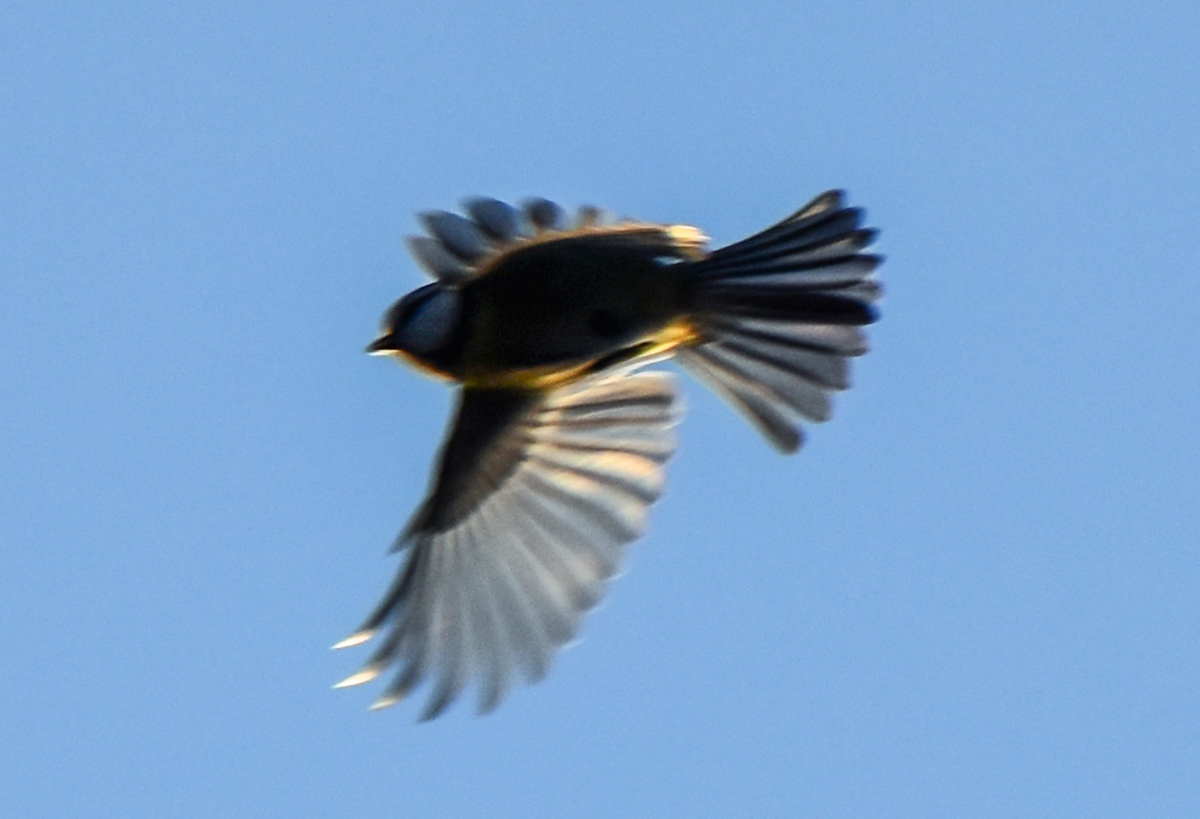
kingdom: Animalia
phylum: Chordata
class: Aves
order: Passeriformes
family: Paridae
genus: Cyanistes
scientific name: Cyanistes caeruleus
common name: Eurasian blue tit
